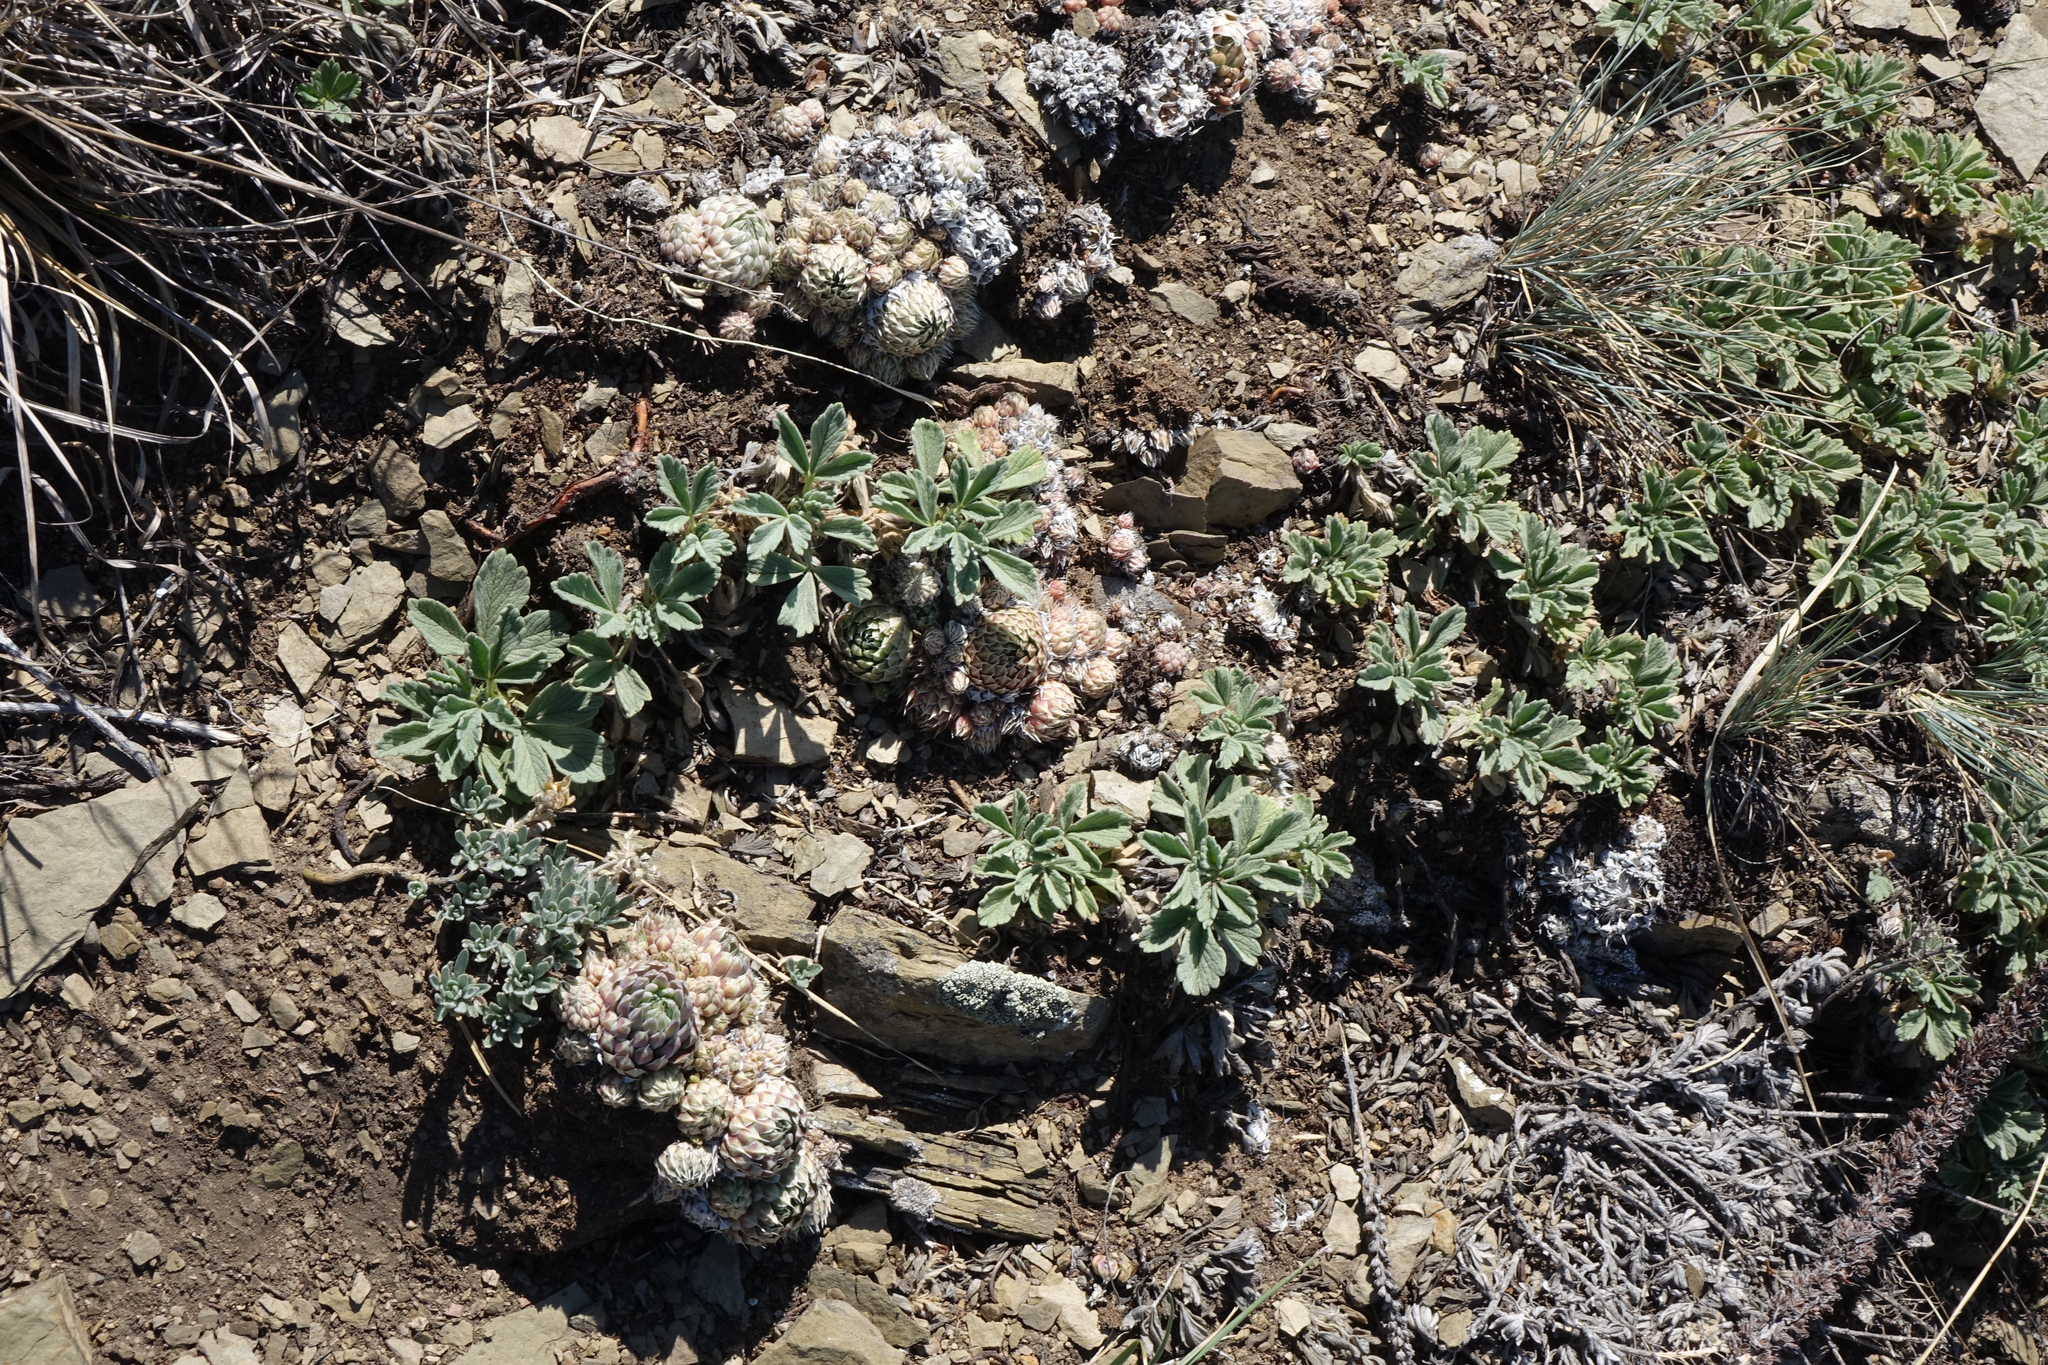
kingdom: Plantae
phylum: Tracheophyta
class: Magnoliopsida
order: Rosales
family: Rosaceae
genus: Potentilla
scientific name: Potentilla acaulis
